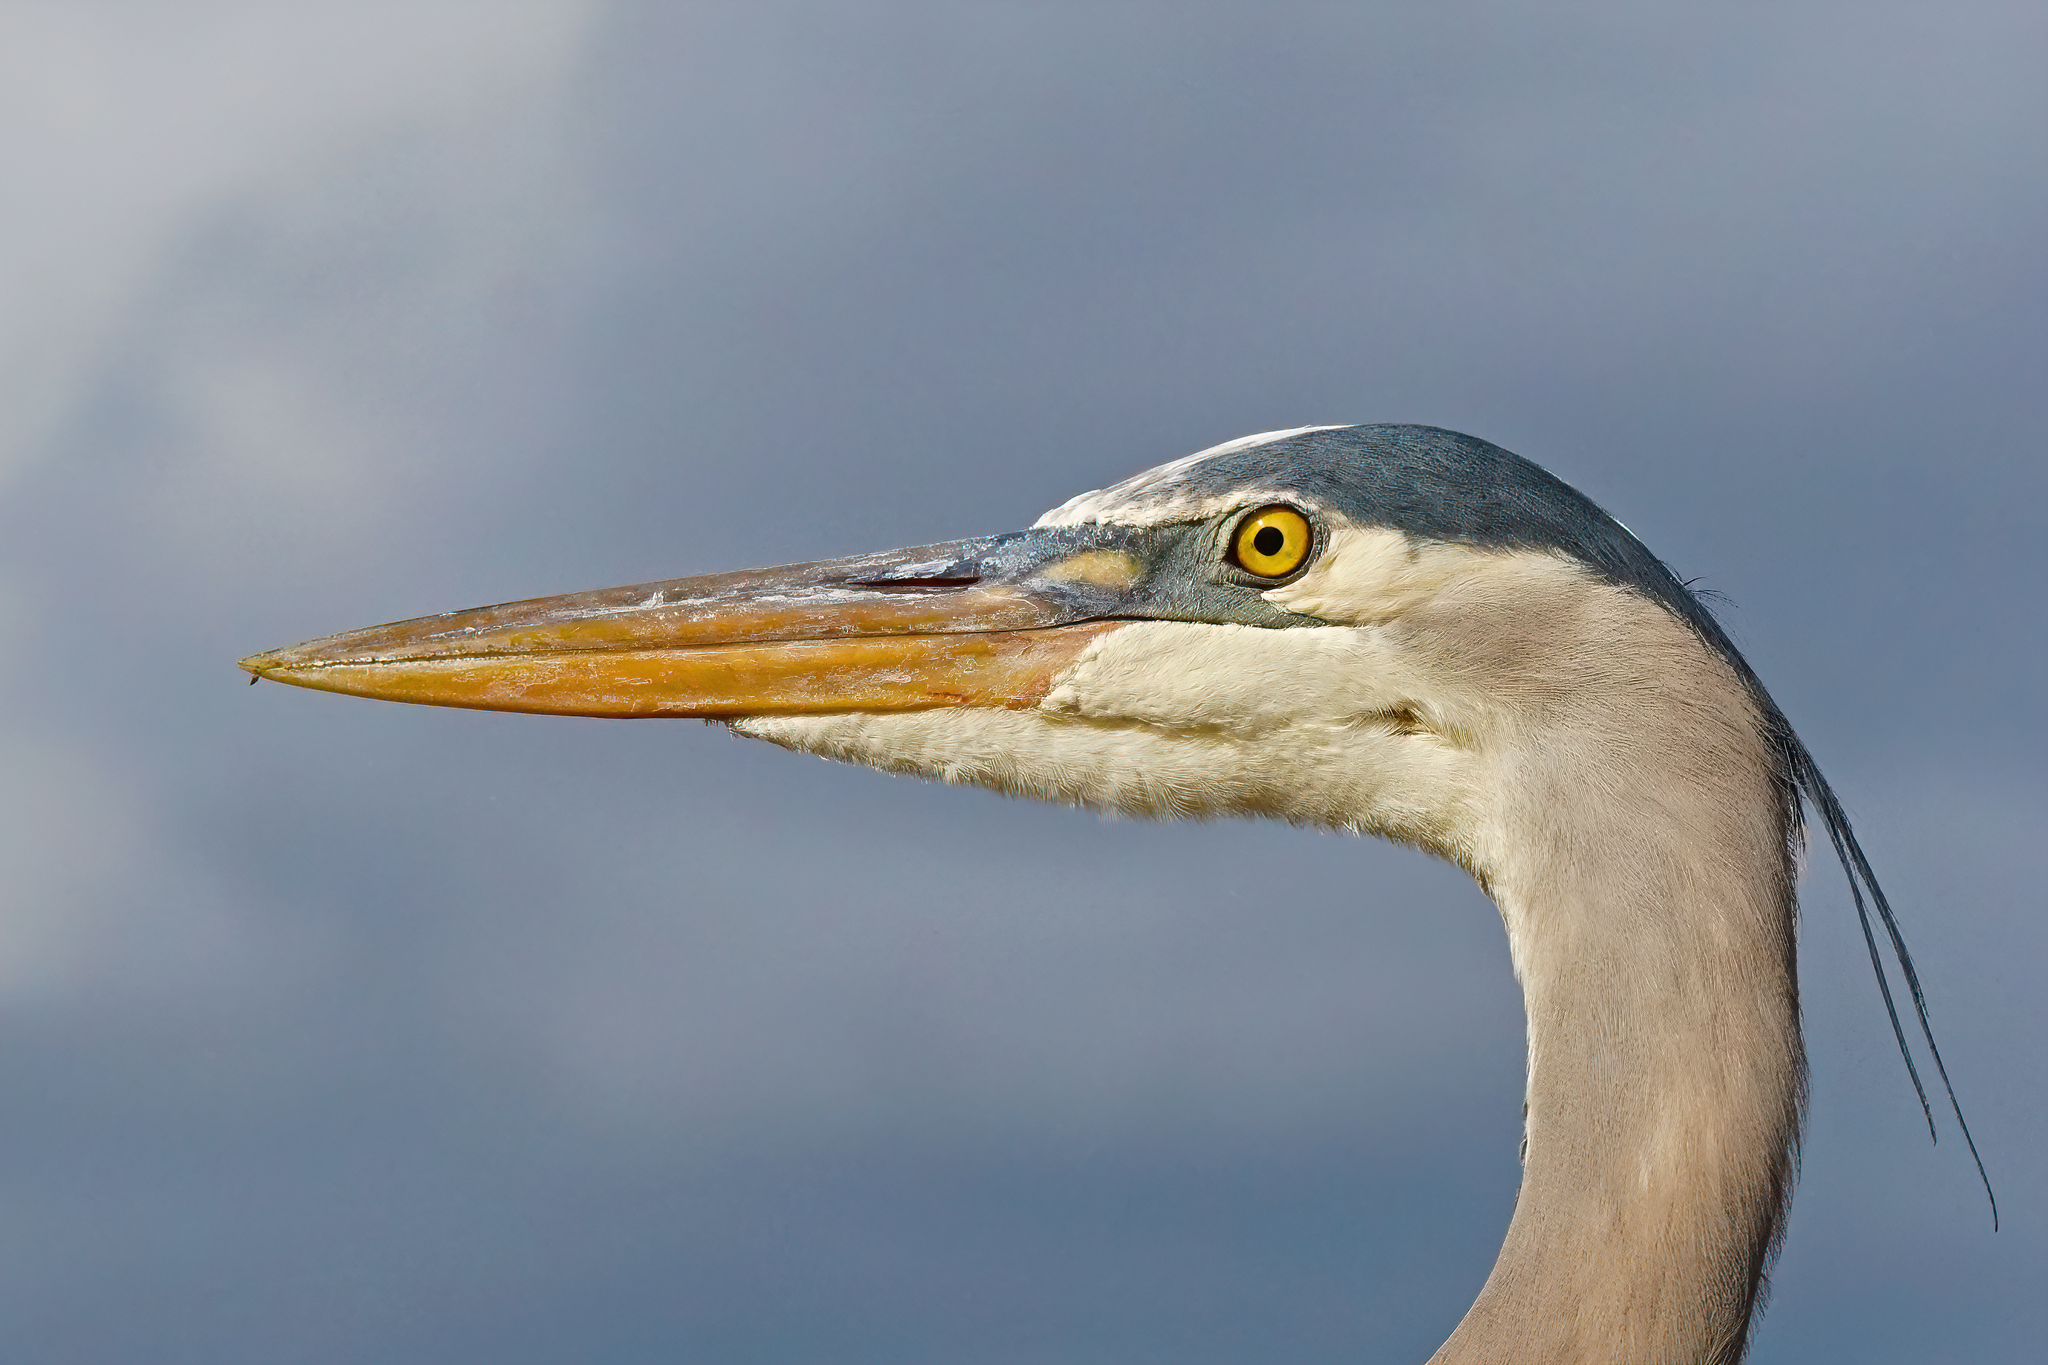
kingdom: Animalia
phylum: Chordata
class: Aves
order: Pelecaniformes
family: Ardeidae
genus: Ardea
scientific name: Ardea herodias
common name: Great blue heron
